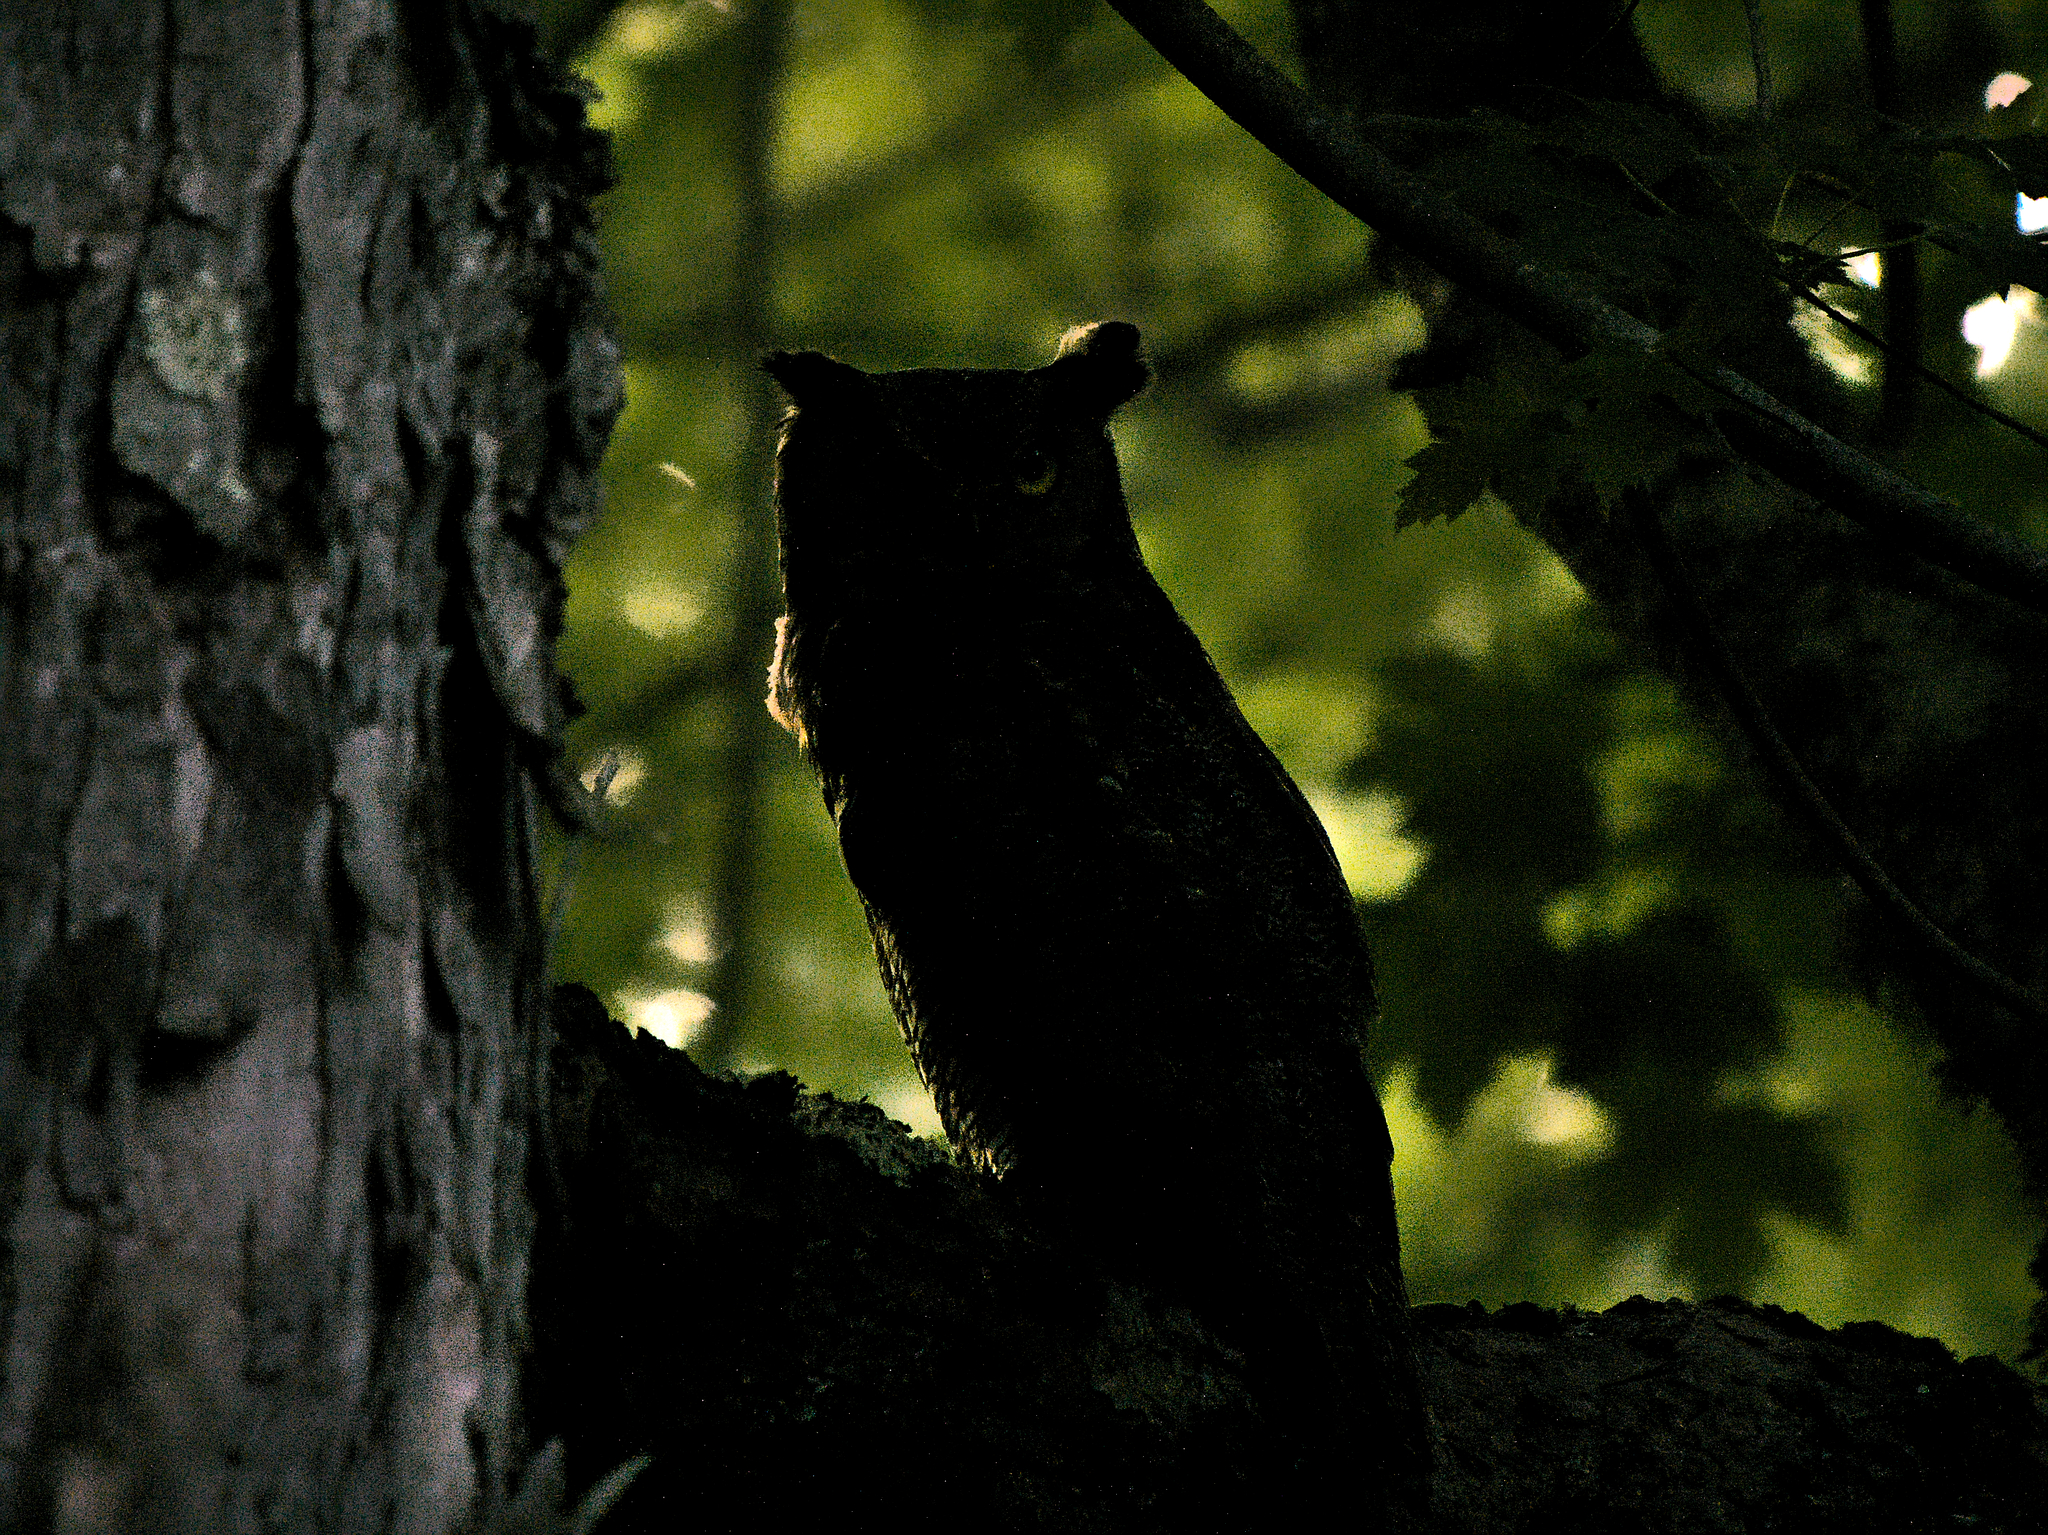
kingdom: Animalia
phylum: Chordata
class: Aves
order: Strigiformes
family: Strigidae
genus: Bubo
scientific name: Bubo virginianus
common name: Great horned owl
